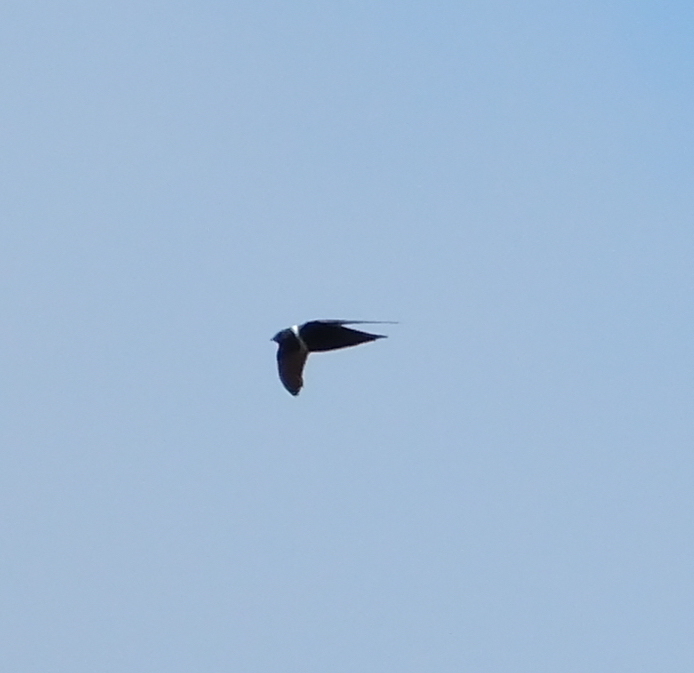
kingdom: Animalia
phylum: Chordata
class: Aves
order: Apodiformes
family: Apodidae
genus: Streptoprocne
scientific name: Streptoprocne zonaris
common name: White-collared swift
